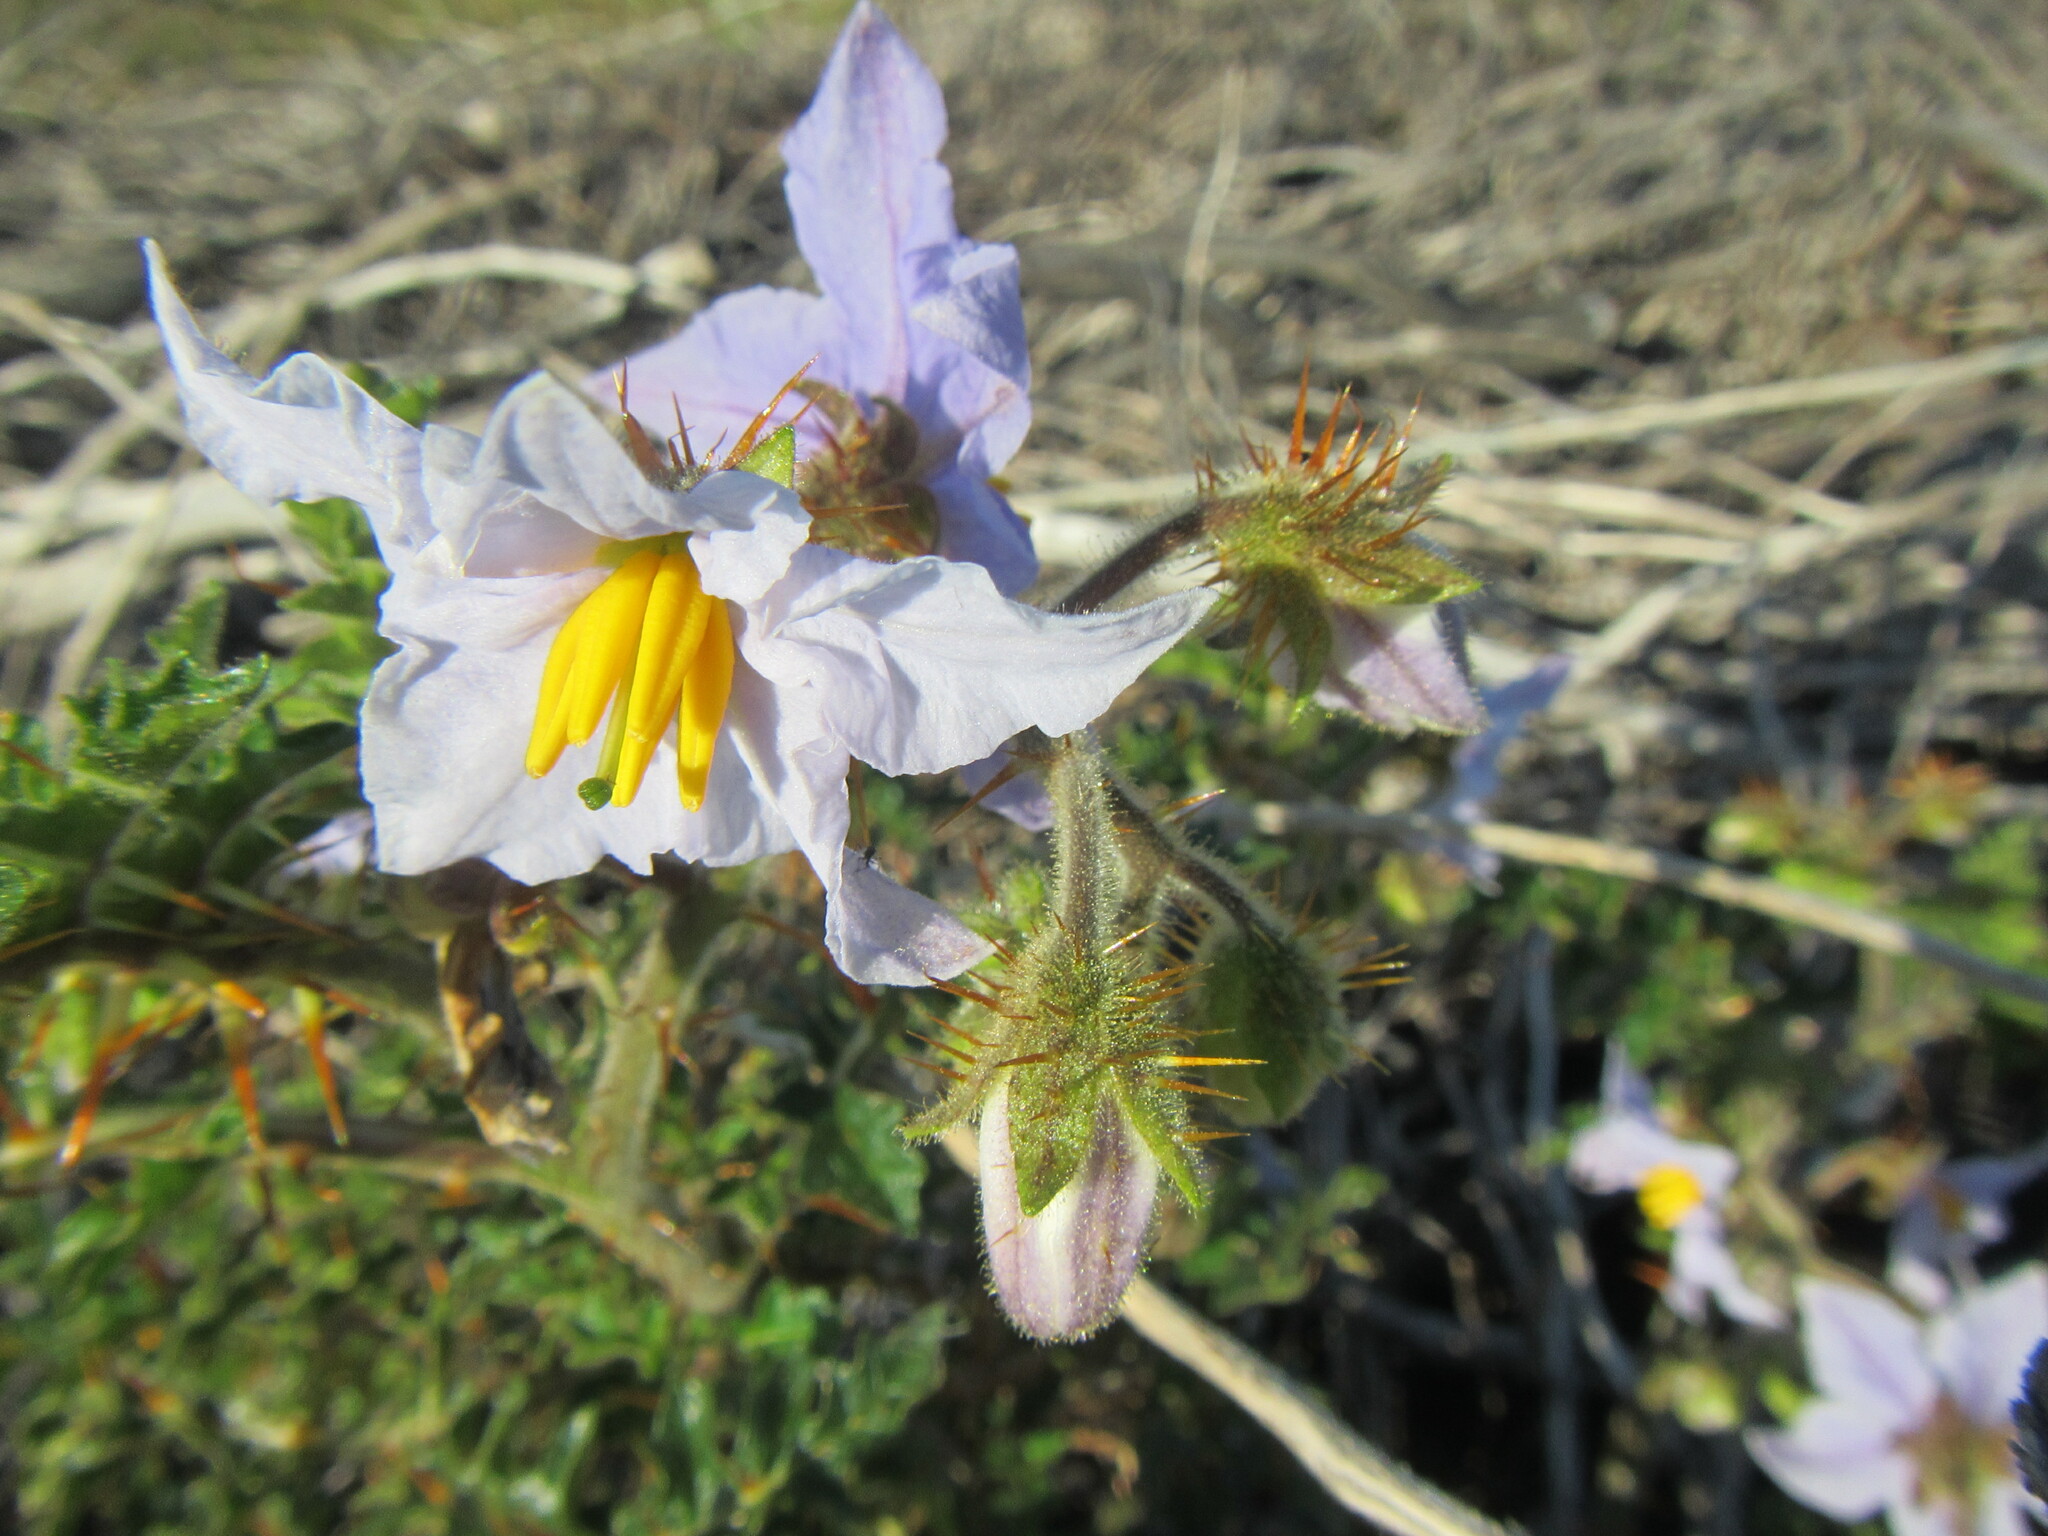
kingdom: Plantae
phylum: Tracheophyta
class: Magnoliopsida
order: Solanales
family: Solanaceae
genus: Solanum
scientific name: Solanum sisymbriifolium
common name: Red buffalo-bur
